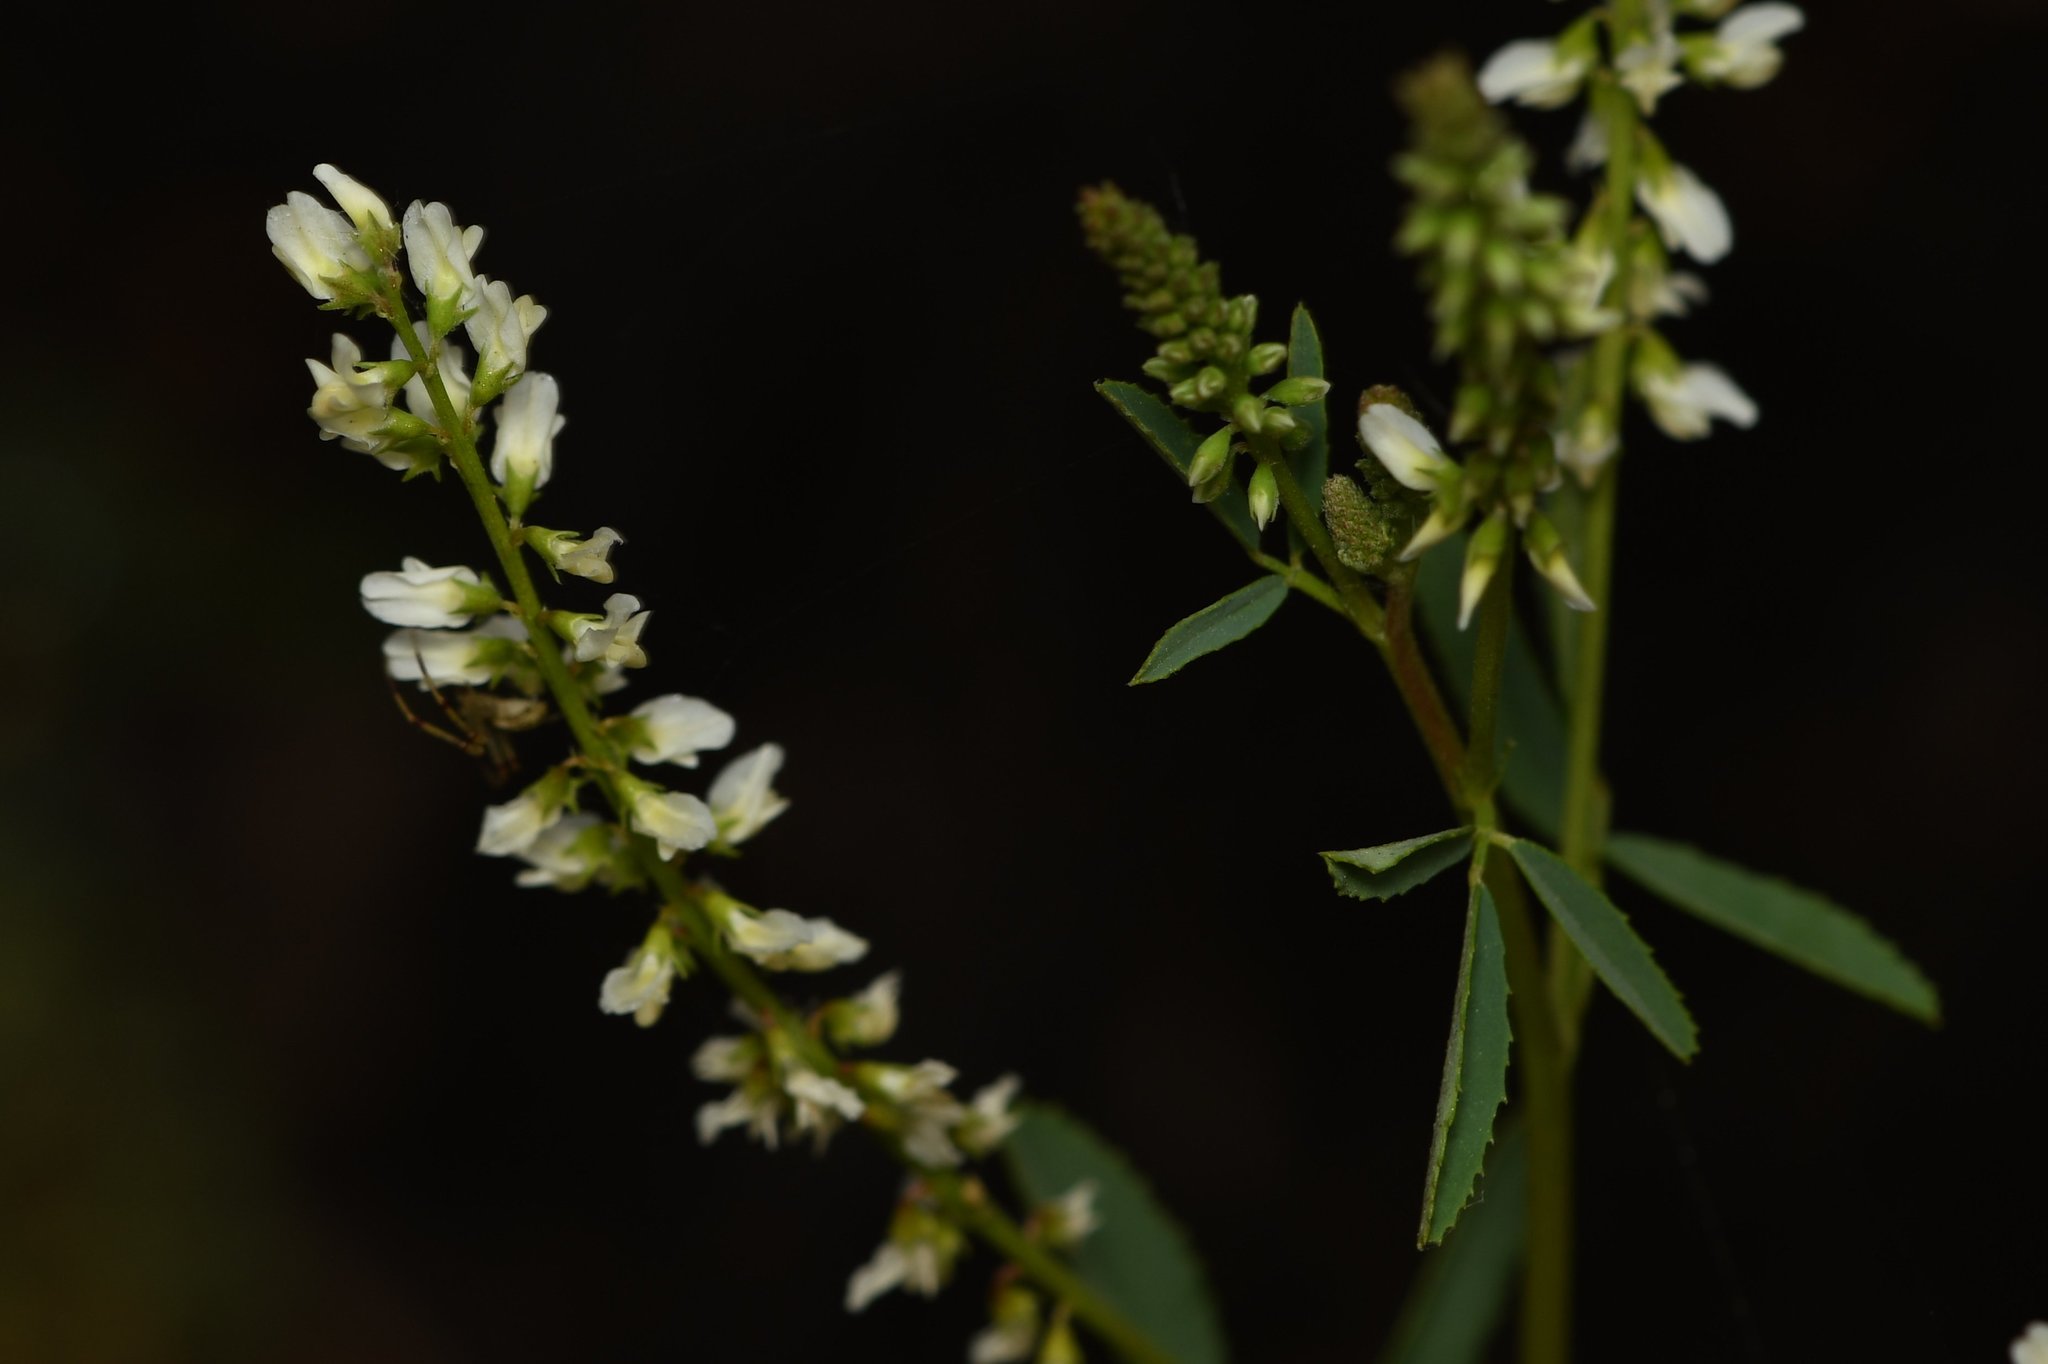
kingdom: Plantae
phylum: Tracheophyta
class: Magnoliopsida
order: Fabales
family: Fabaceae
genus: Melilotus
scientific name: Melilotus albus
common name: White melilot
